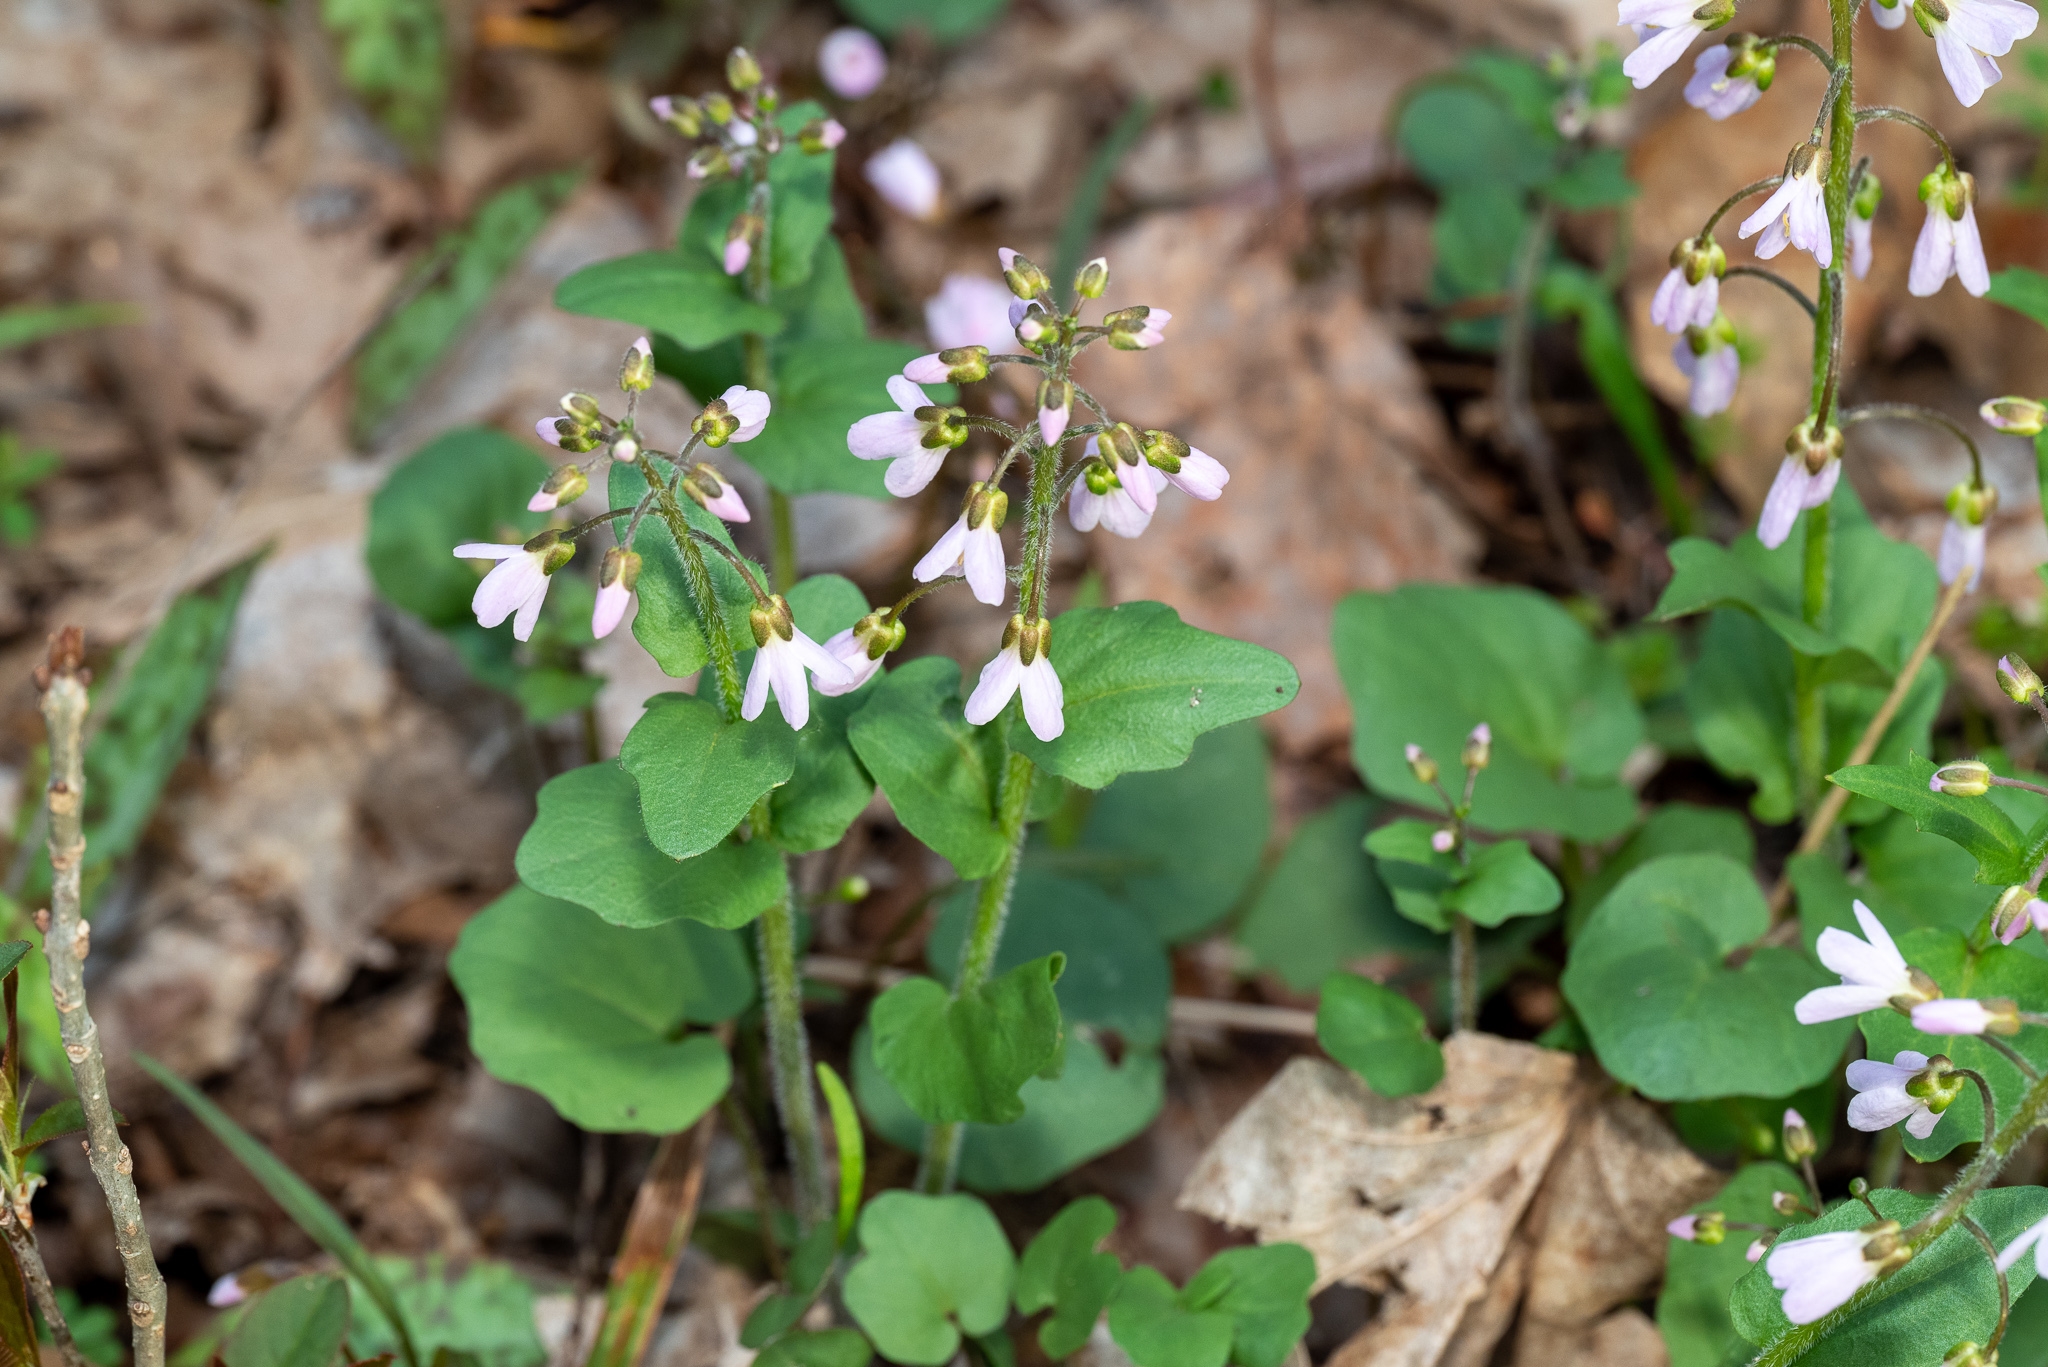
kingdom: Plantae
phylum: Tracheophyta
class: Magnoliopsida
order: Brassicales
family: Brassicaceae
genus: Cardamine
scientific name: Cardamine douglassii
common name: Purple cress
